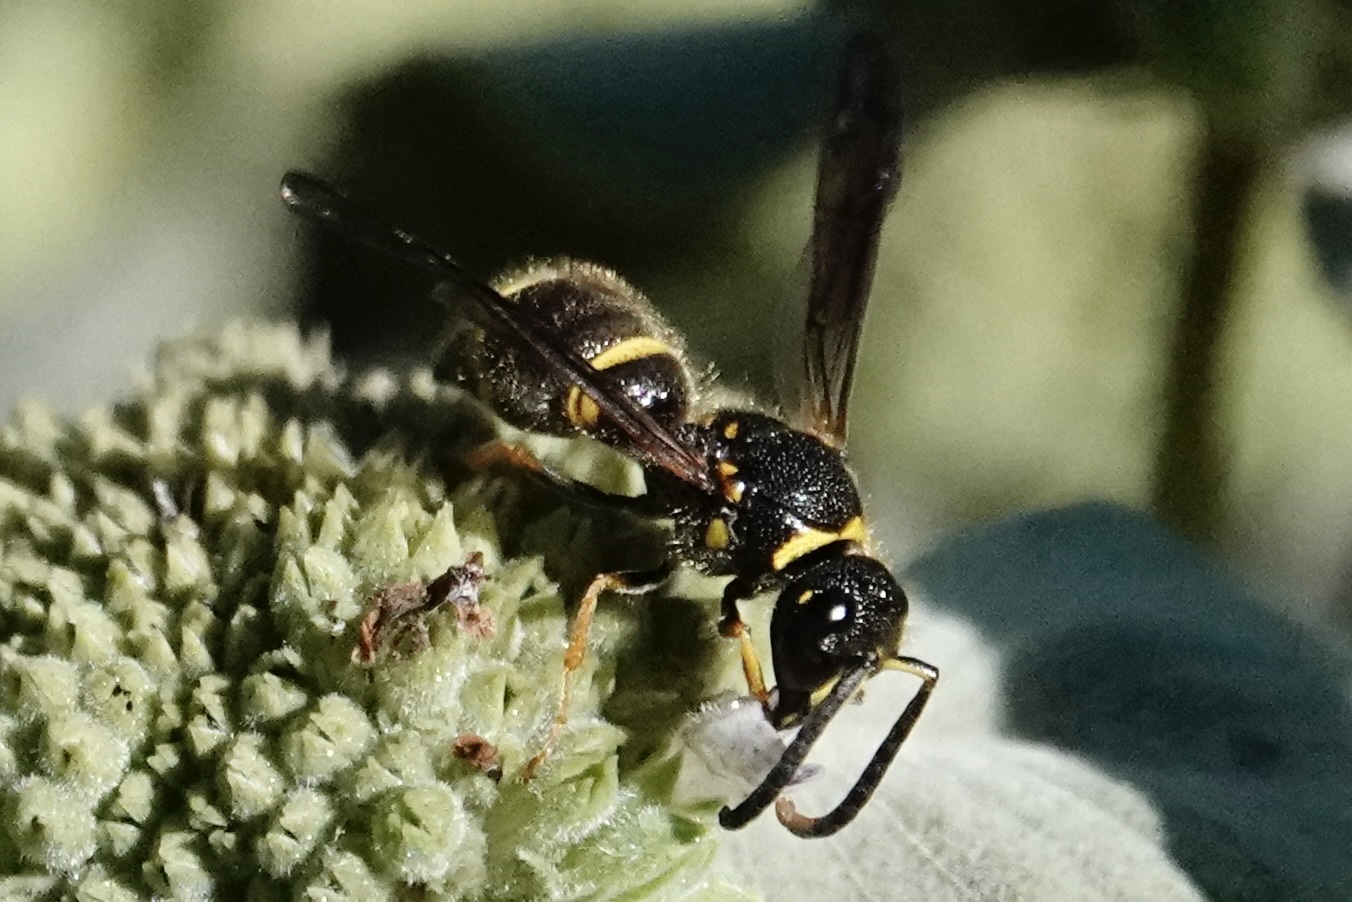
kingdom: Animalia
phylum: Arthropoda
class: Insecta
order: Hymenoptera
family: Vespidae
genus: Ancistrocerus
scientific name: Ancistrocerus campestris
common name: Smiling mason wasp
